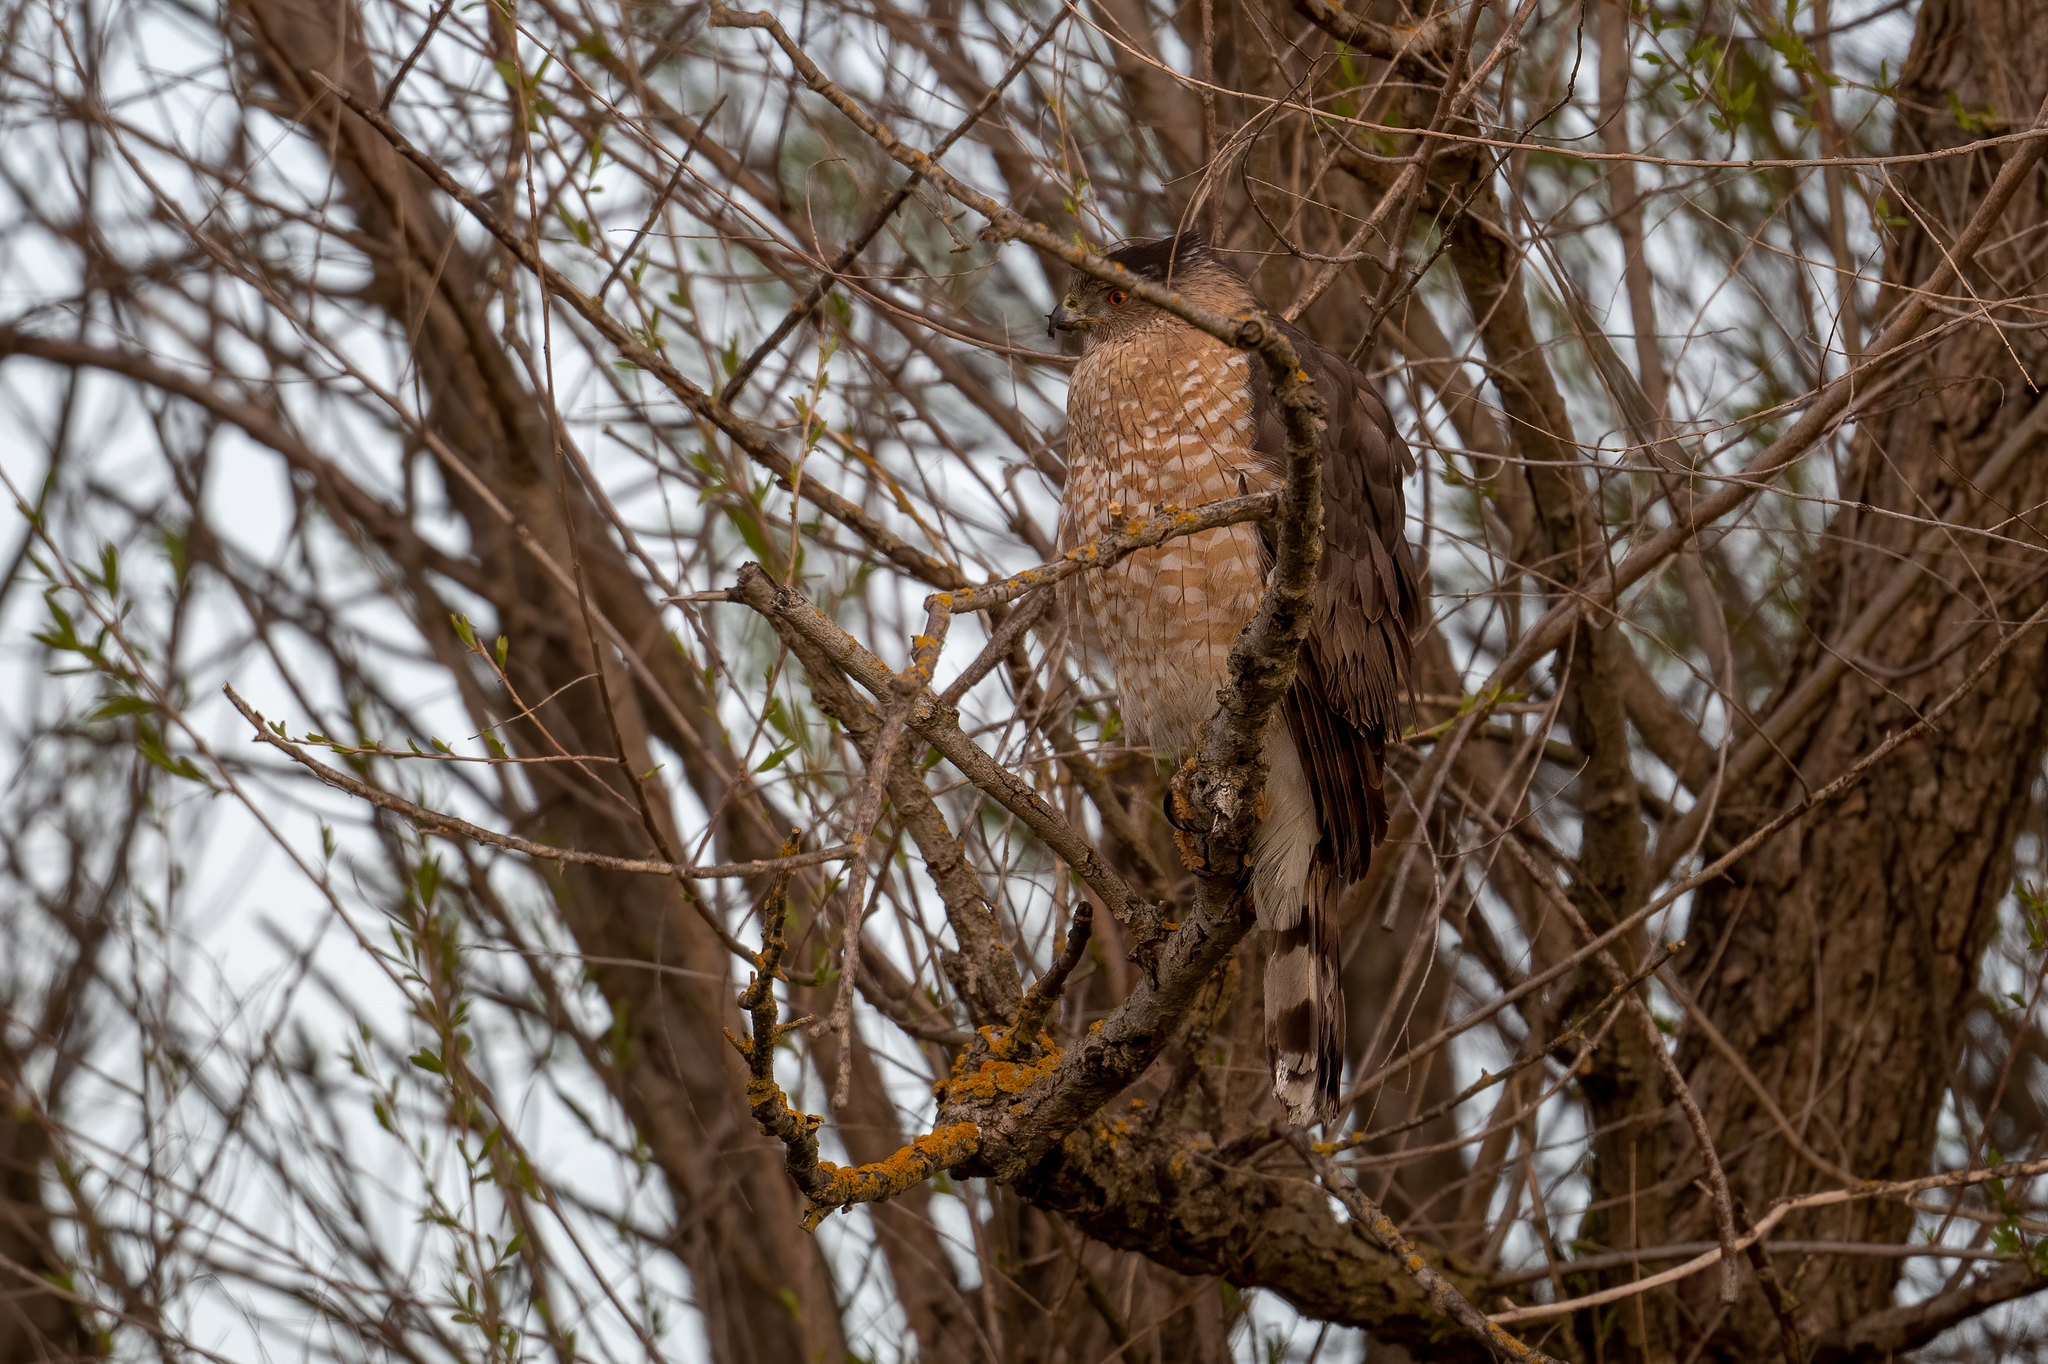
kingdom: Animalia
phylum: Chordata
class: Aves
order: Accipitriformes
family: Accipitridae
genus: Accipiter
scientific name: Accipiter cooperii
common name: Cooper's hawk
